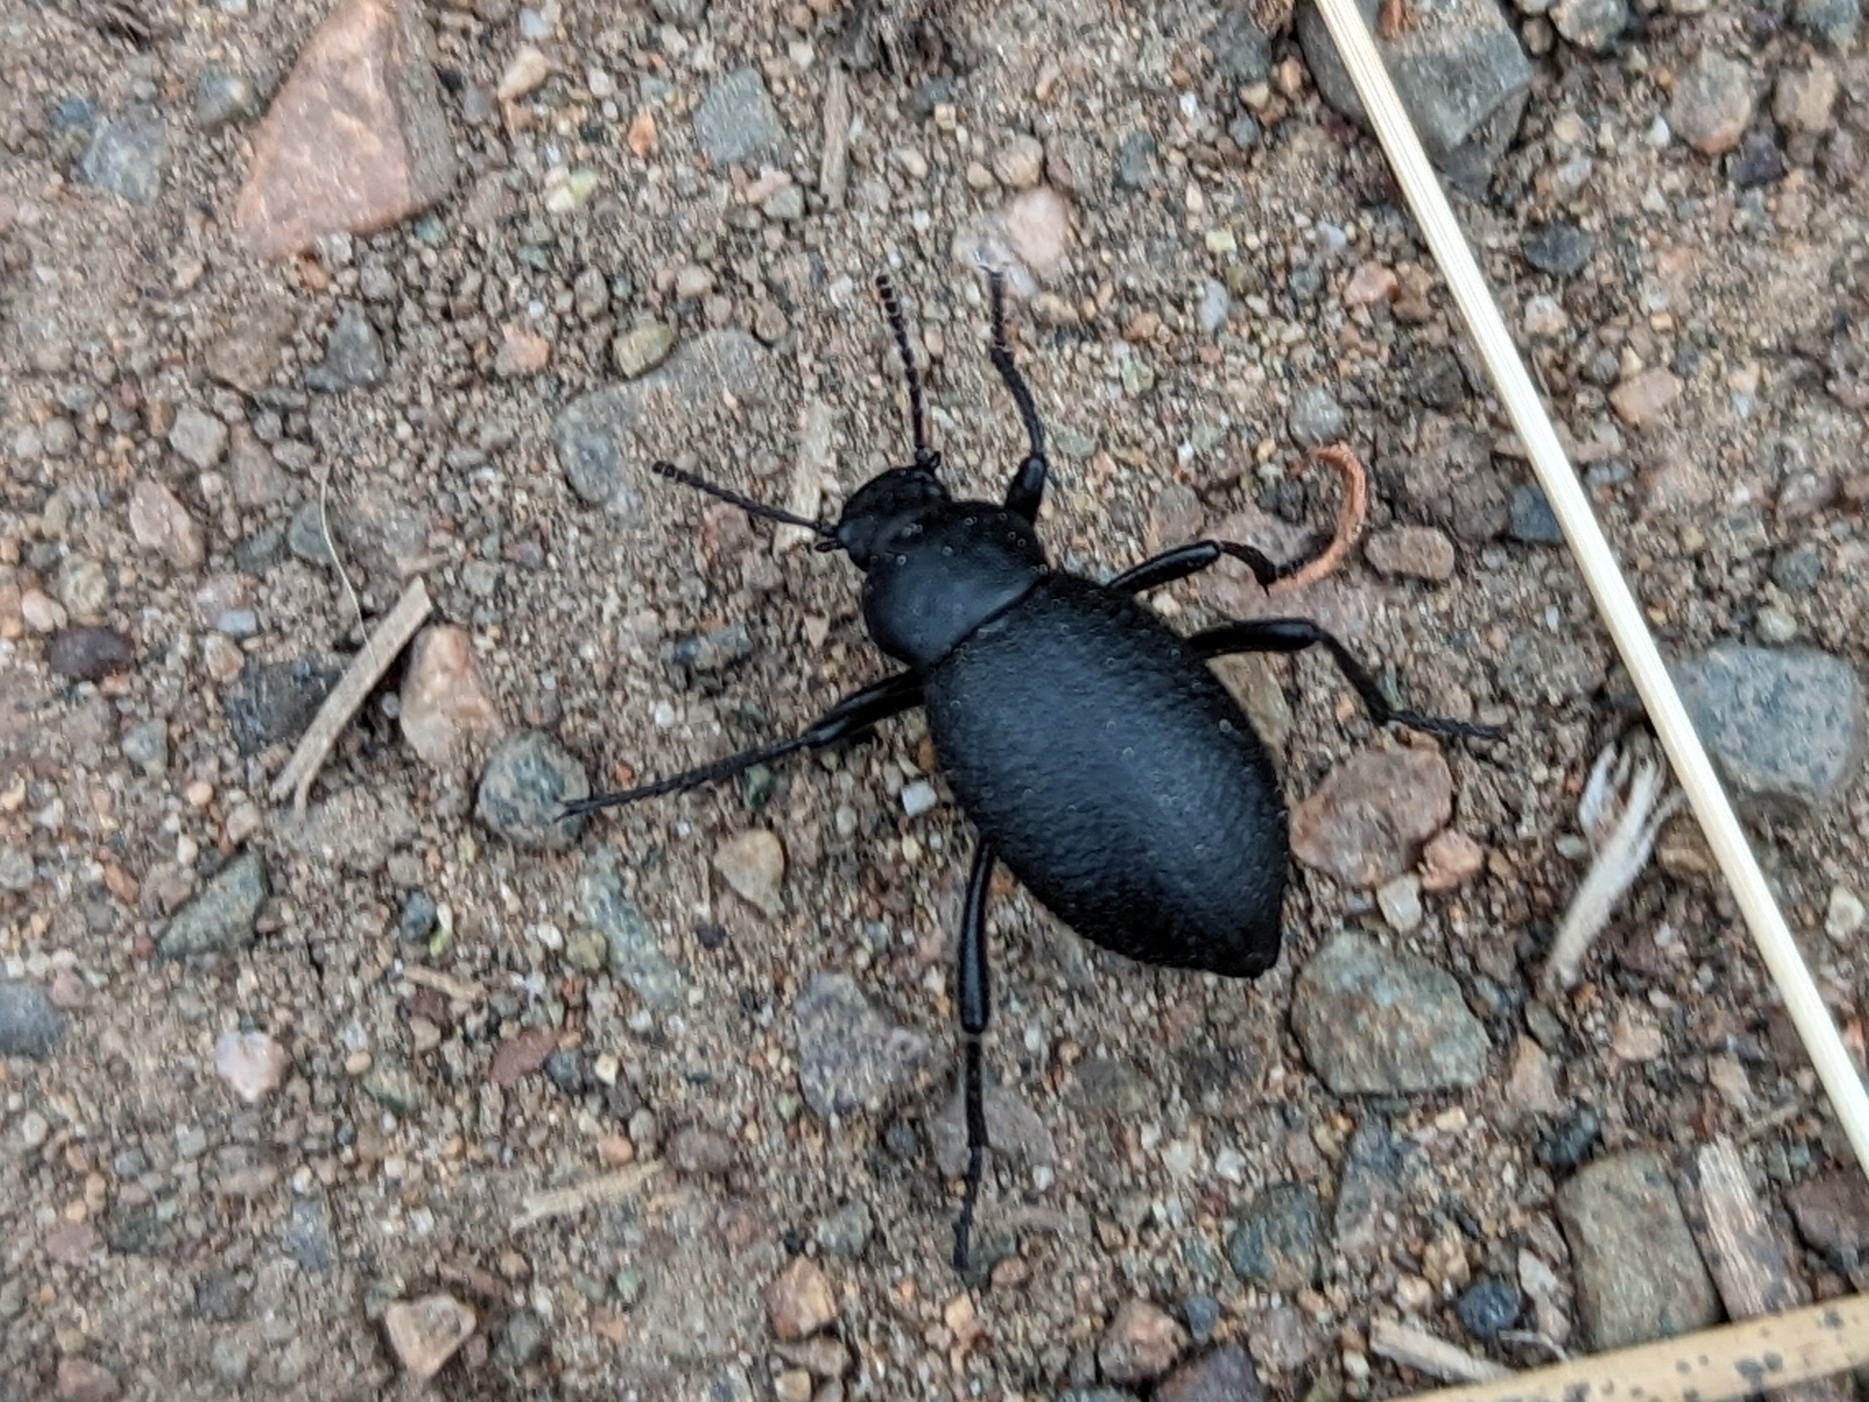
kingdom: Animalia
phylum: Arthropoda
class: Insecta
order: Coleoptera
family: Tenebrionidae
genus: Eleodes
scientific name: Eleodes granulata
